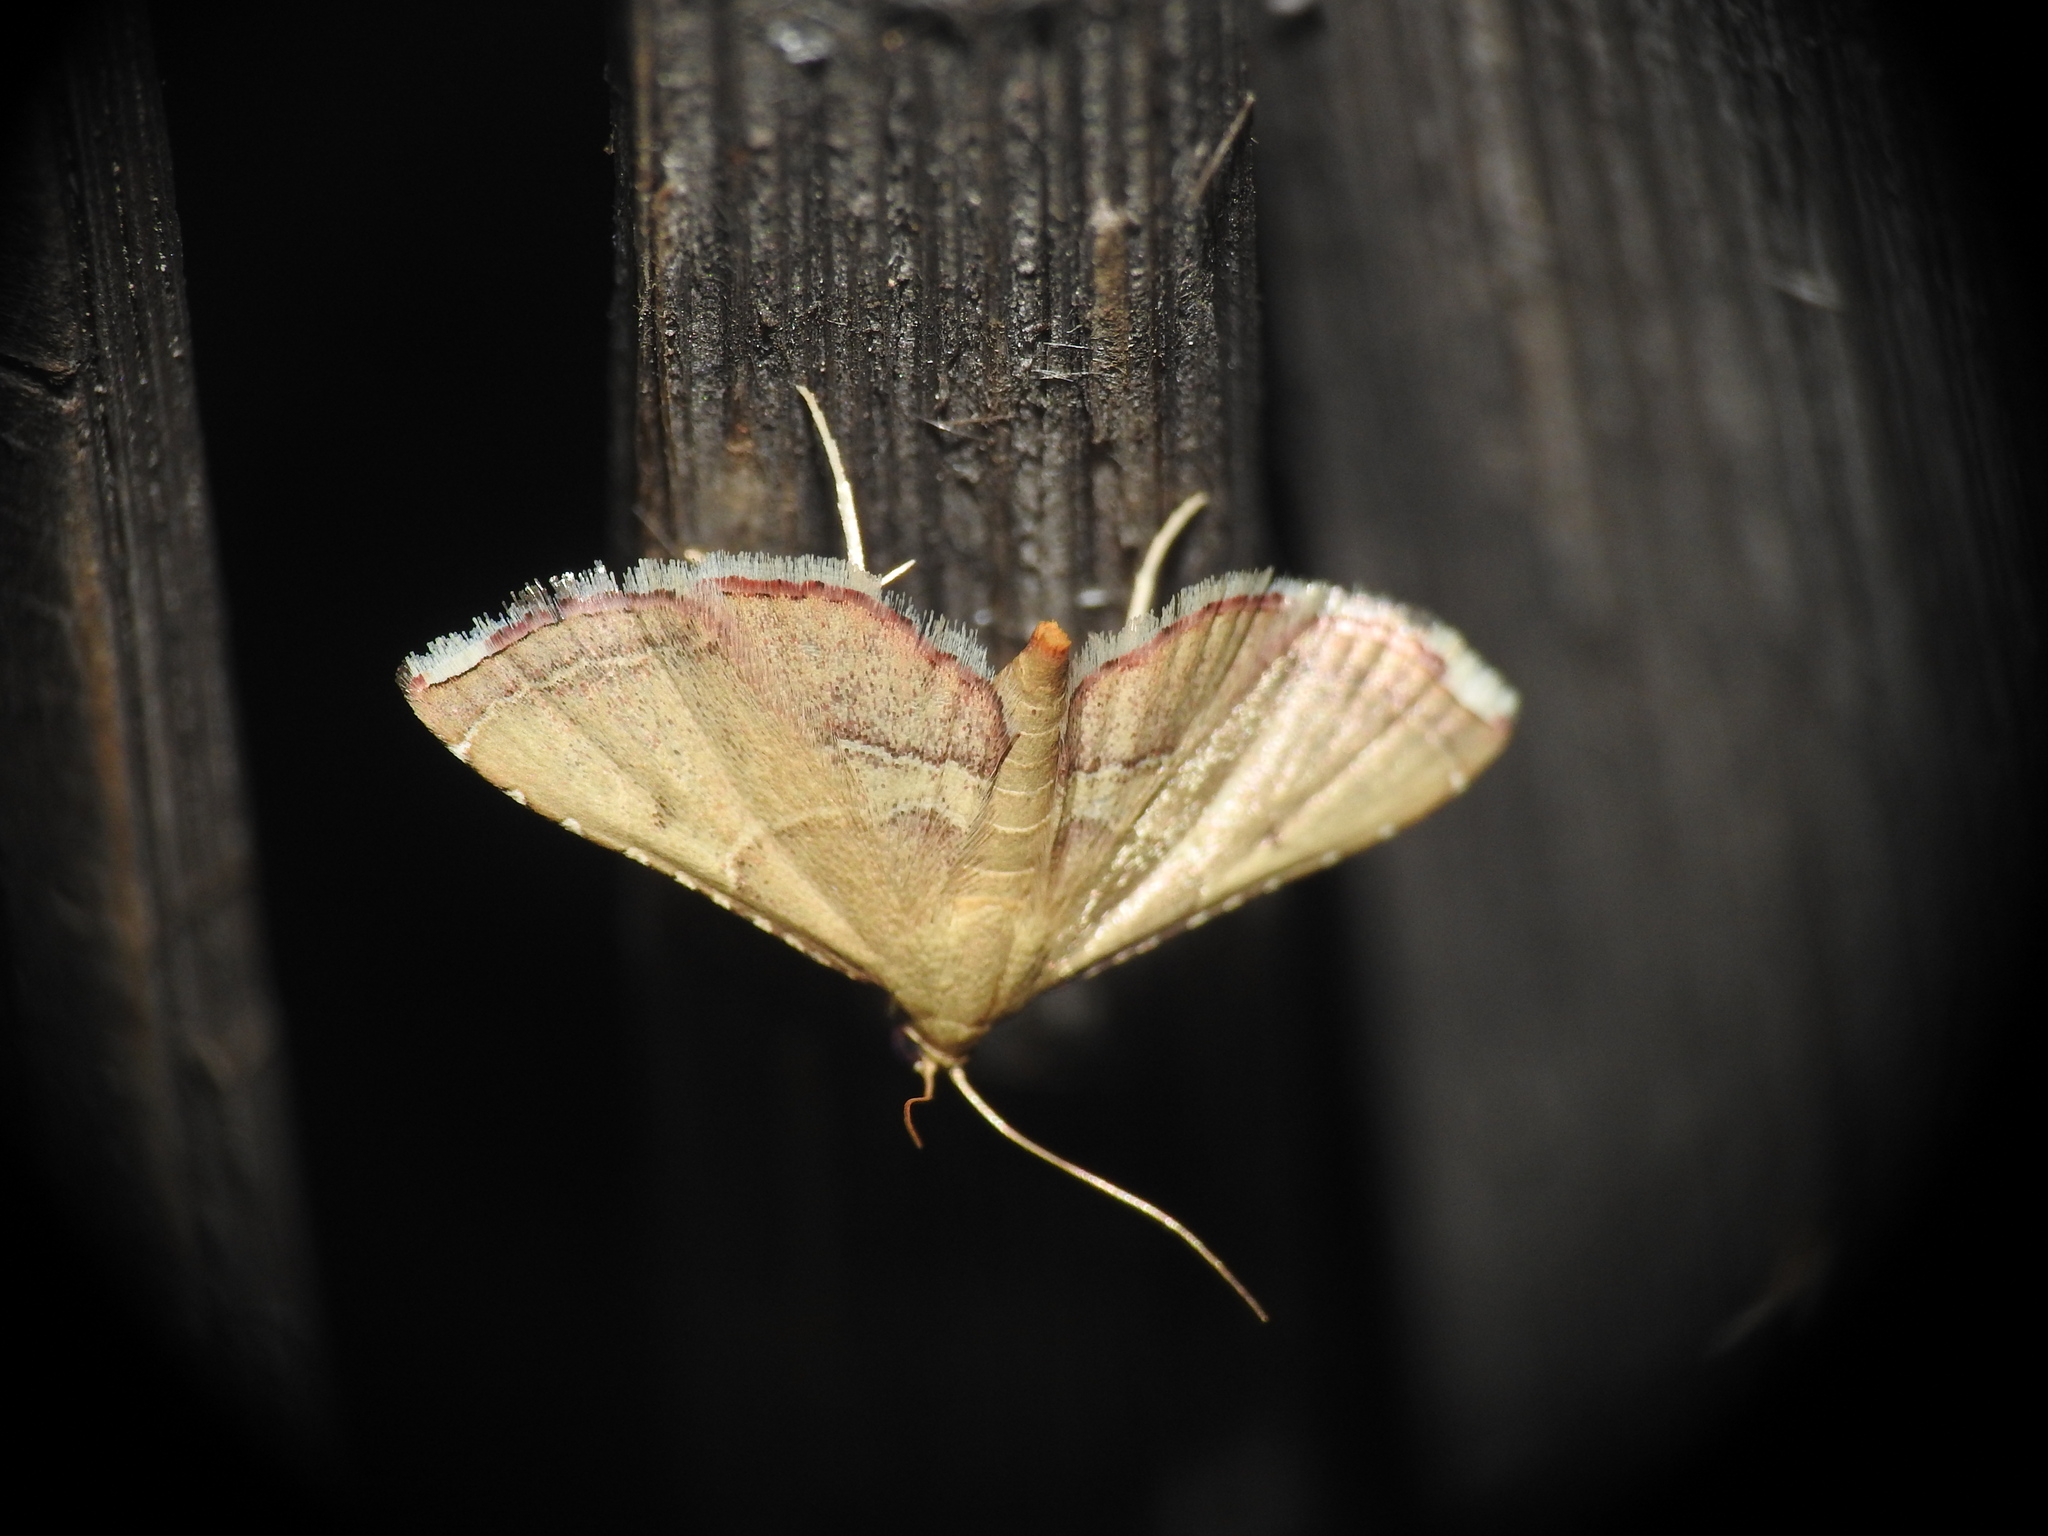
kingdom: Animalia
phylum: Arthropoda
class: Insecta
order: Lepidoptera
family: Pyralidae
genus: Endotricha
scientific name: Endotricha flammealis
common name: Rosy tabby
